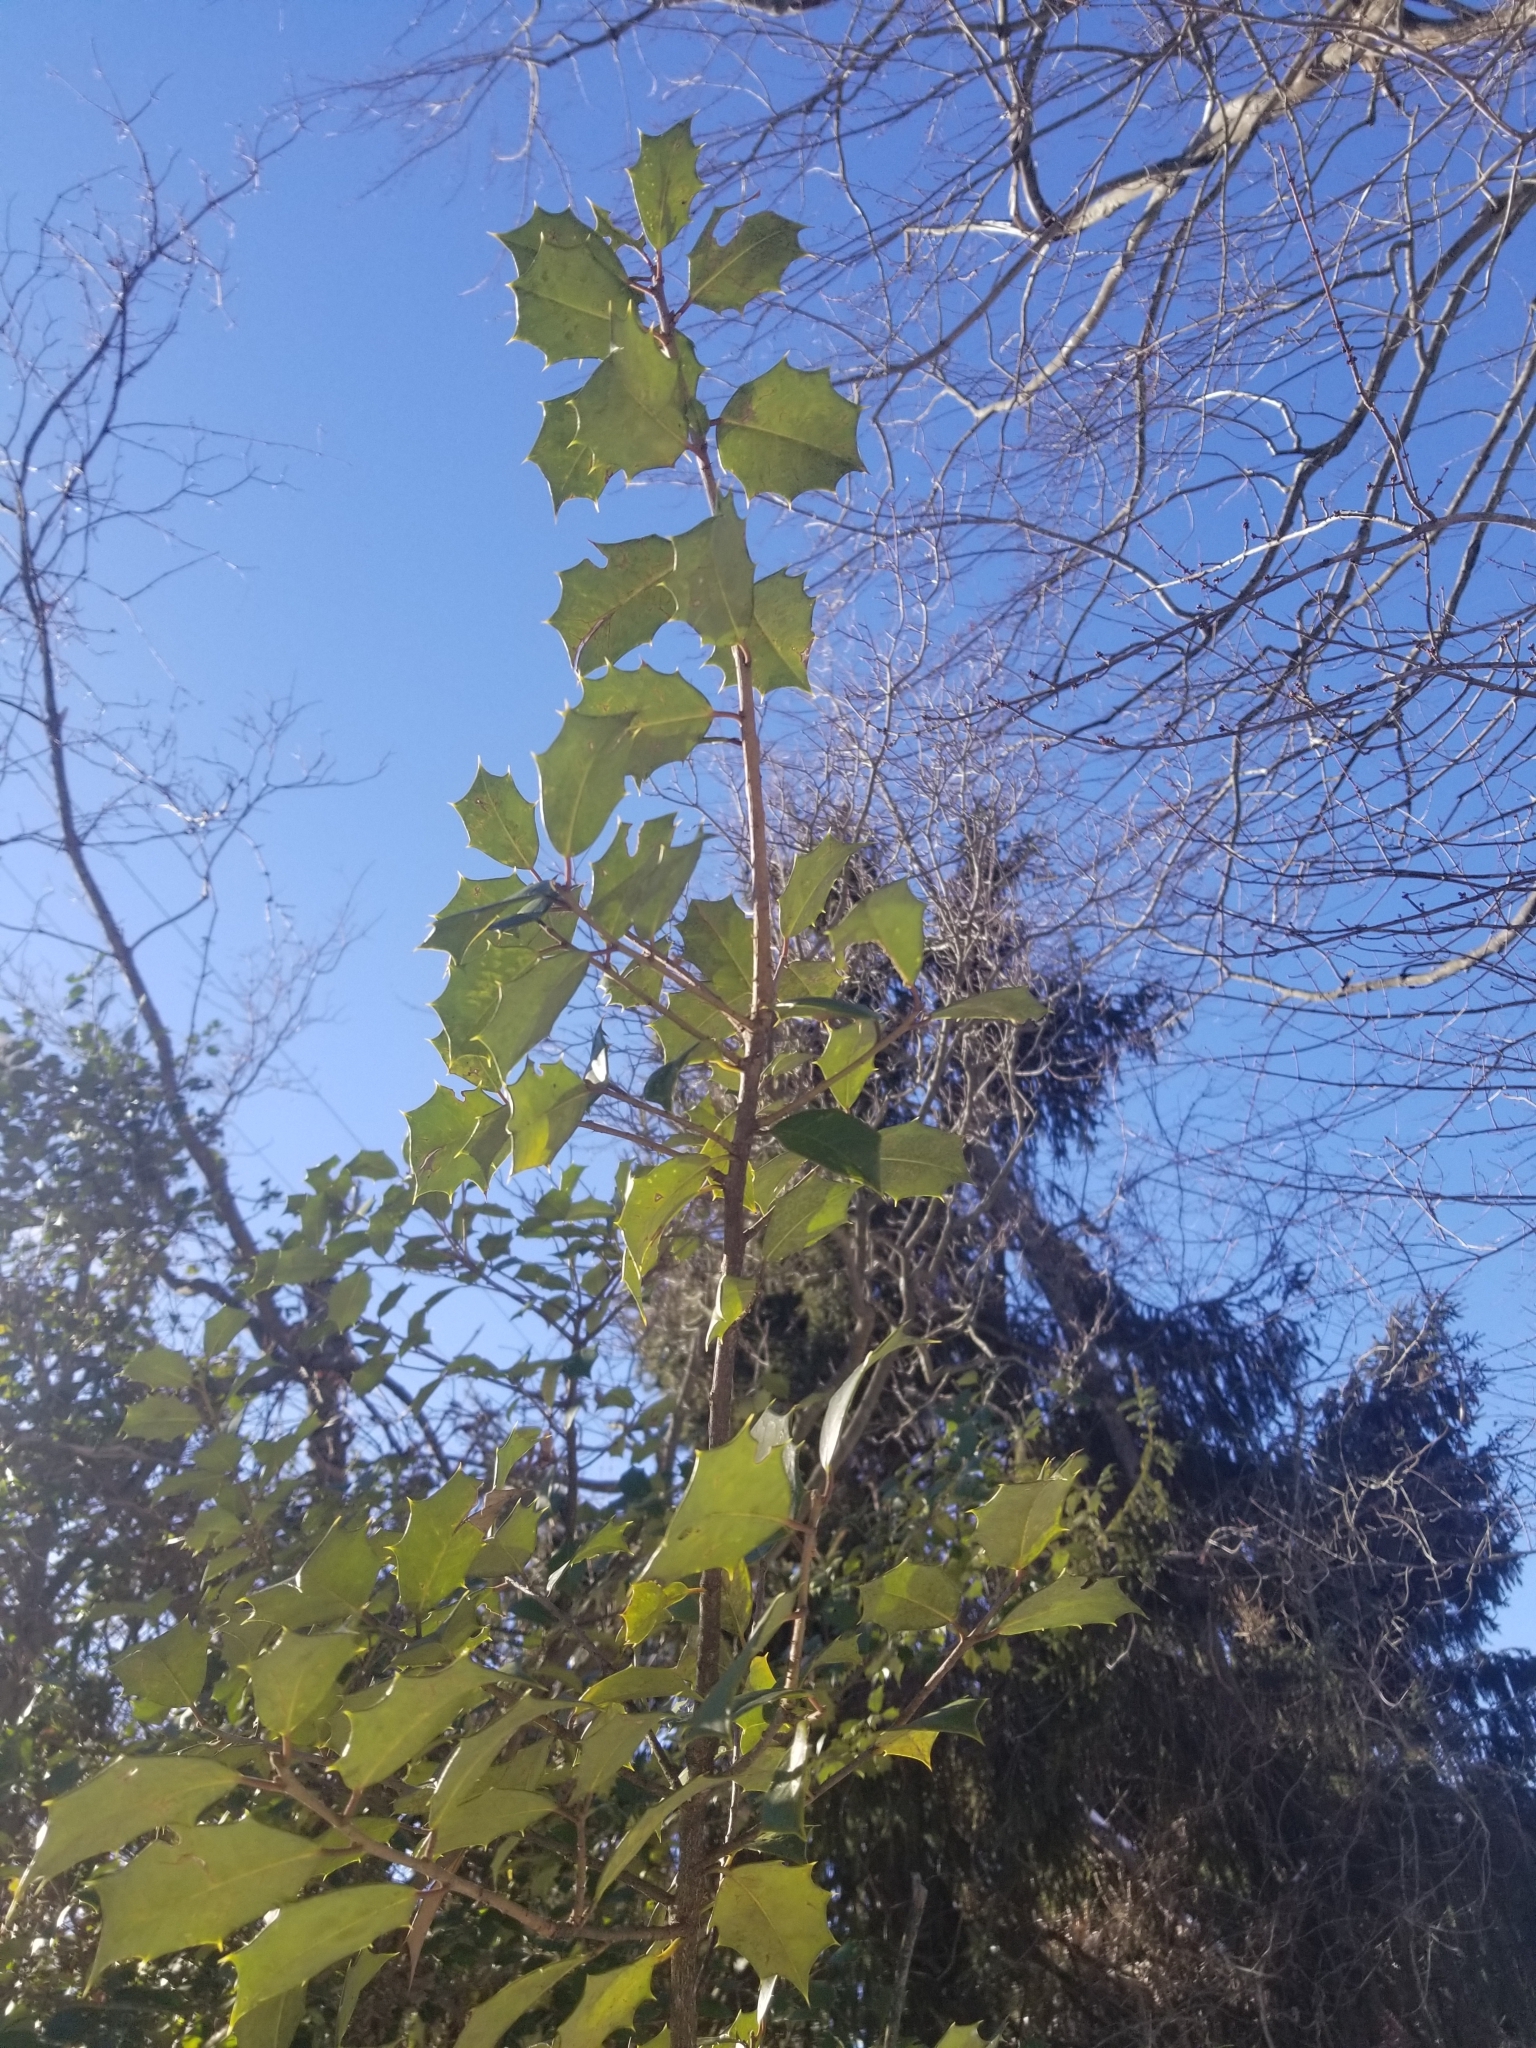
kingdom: Plantae
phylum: Tracheophyta
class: Magnoliopsida
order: Aquifoliales
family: Aquifoliaceae
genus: Ilex
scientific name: Ilex opaca
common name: American holly
